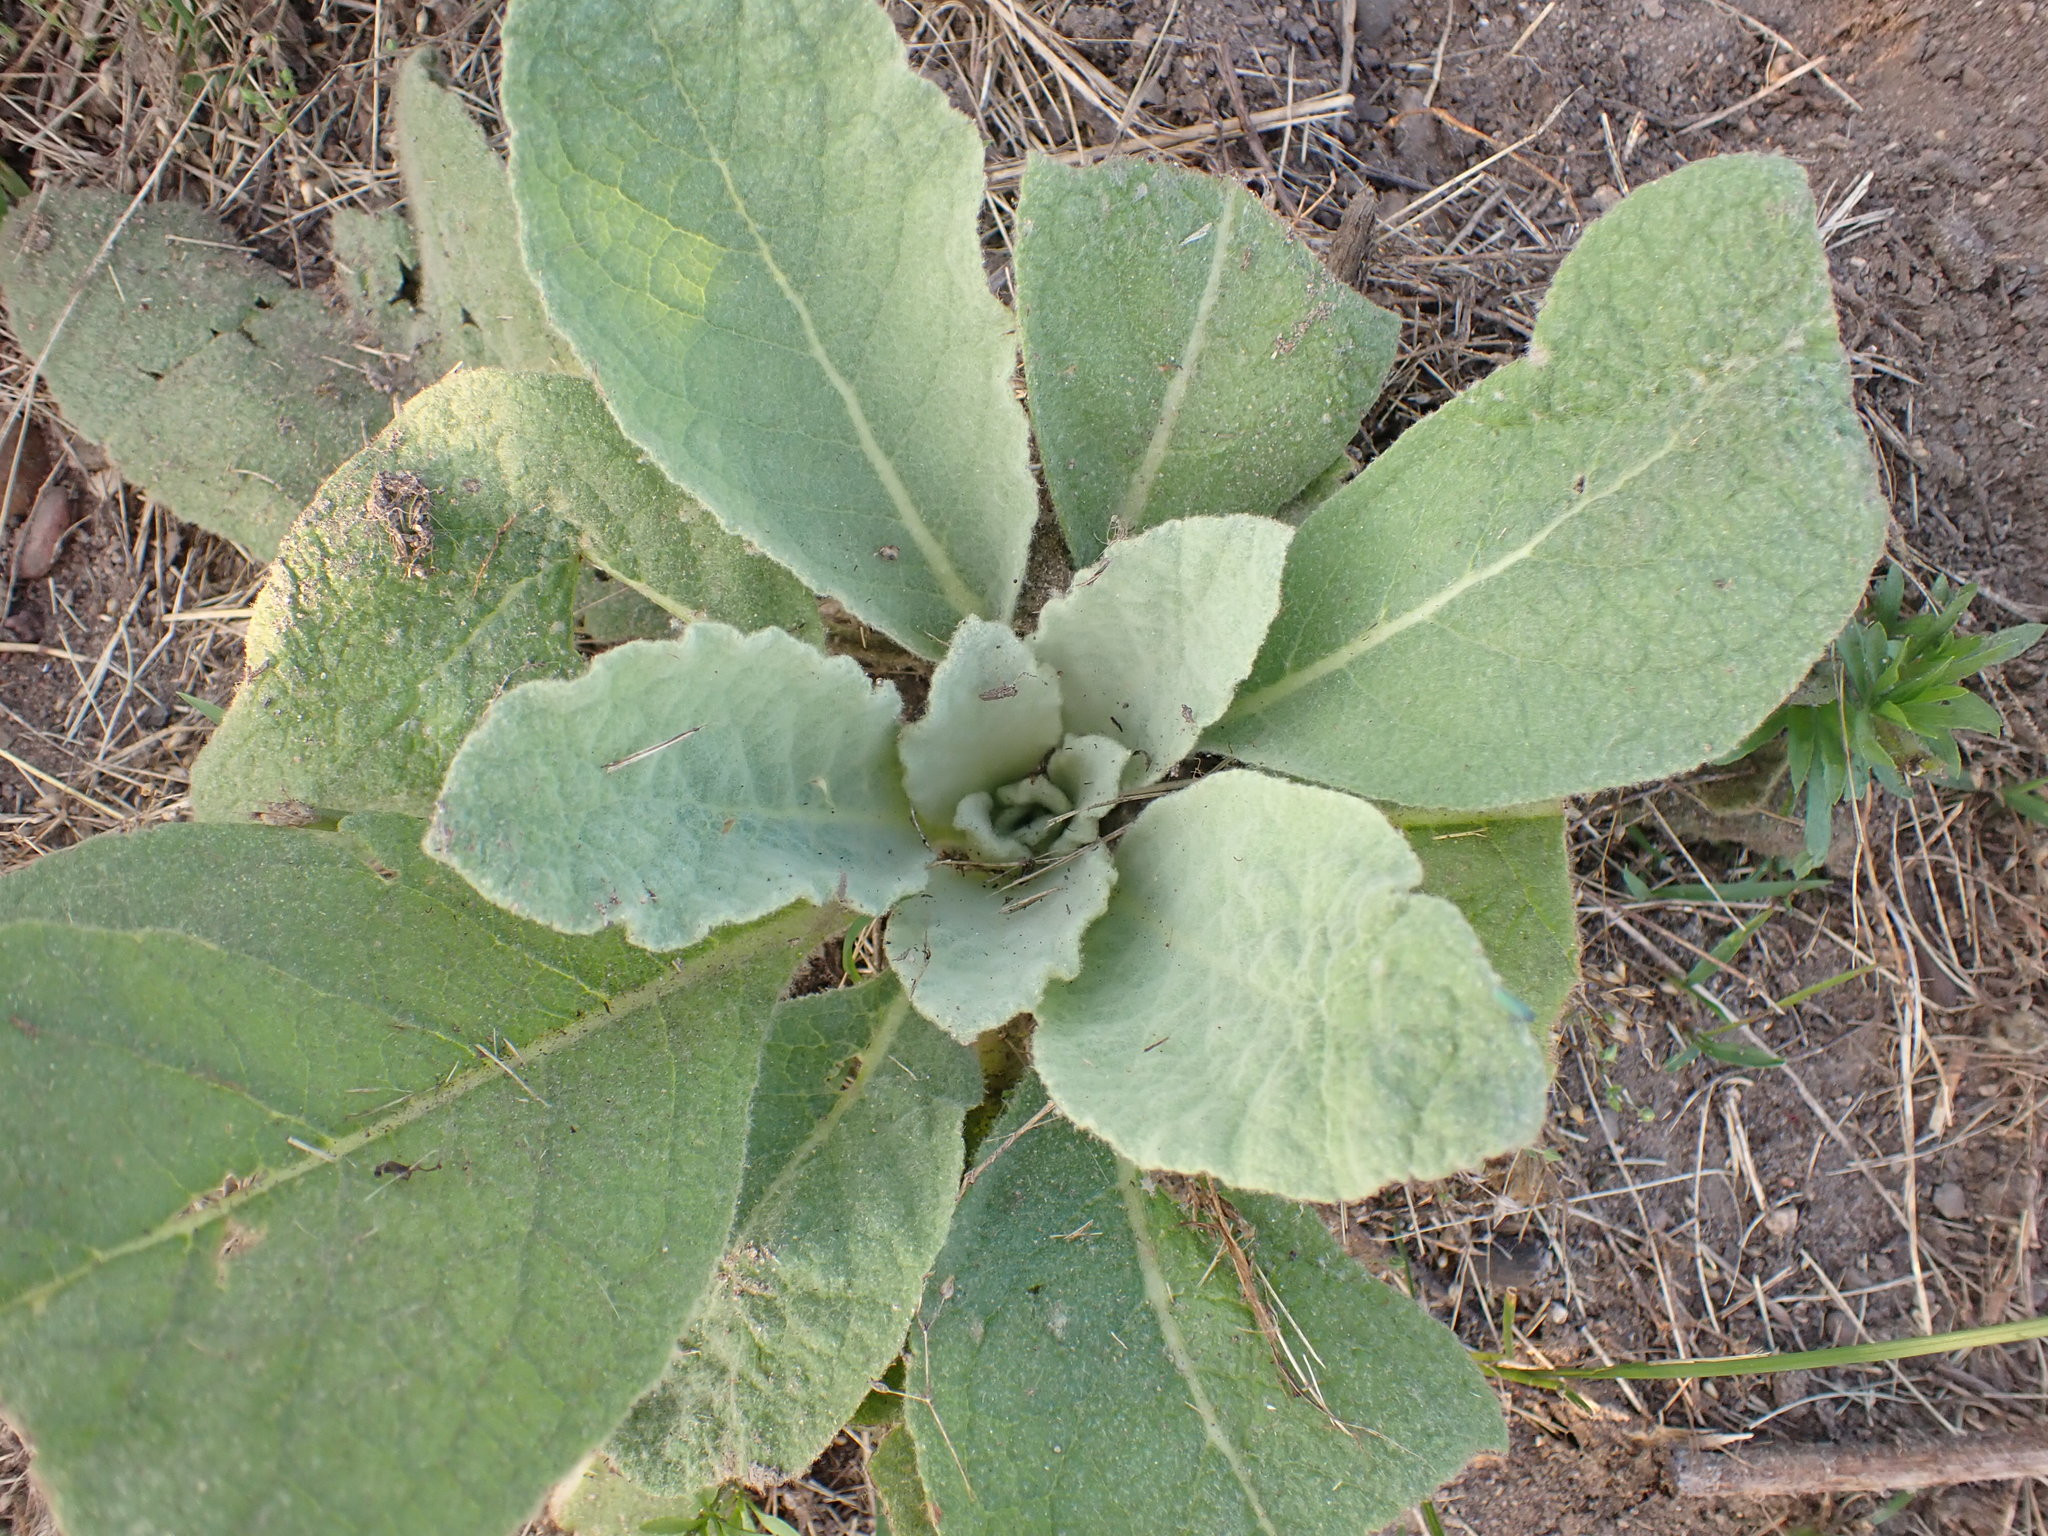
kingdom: Plantae
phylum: Tracheophyta
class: Magnoliopsida
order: Lamiales
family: Scrophulariaceae
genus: Verbascum
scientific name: Verbascum thapsus
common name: Common mullein
